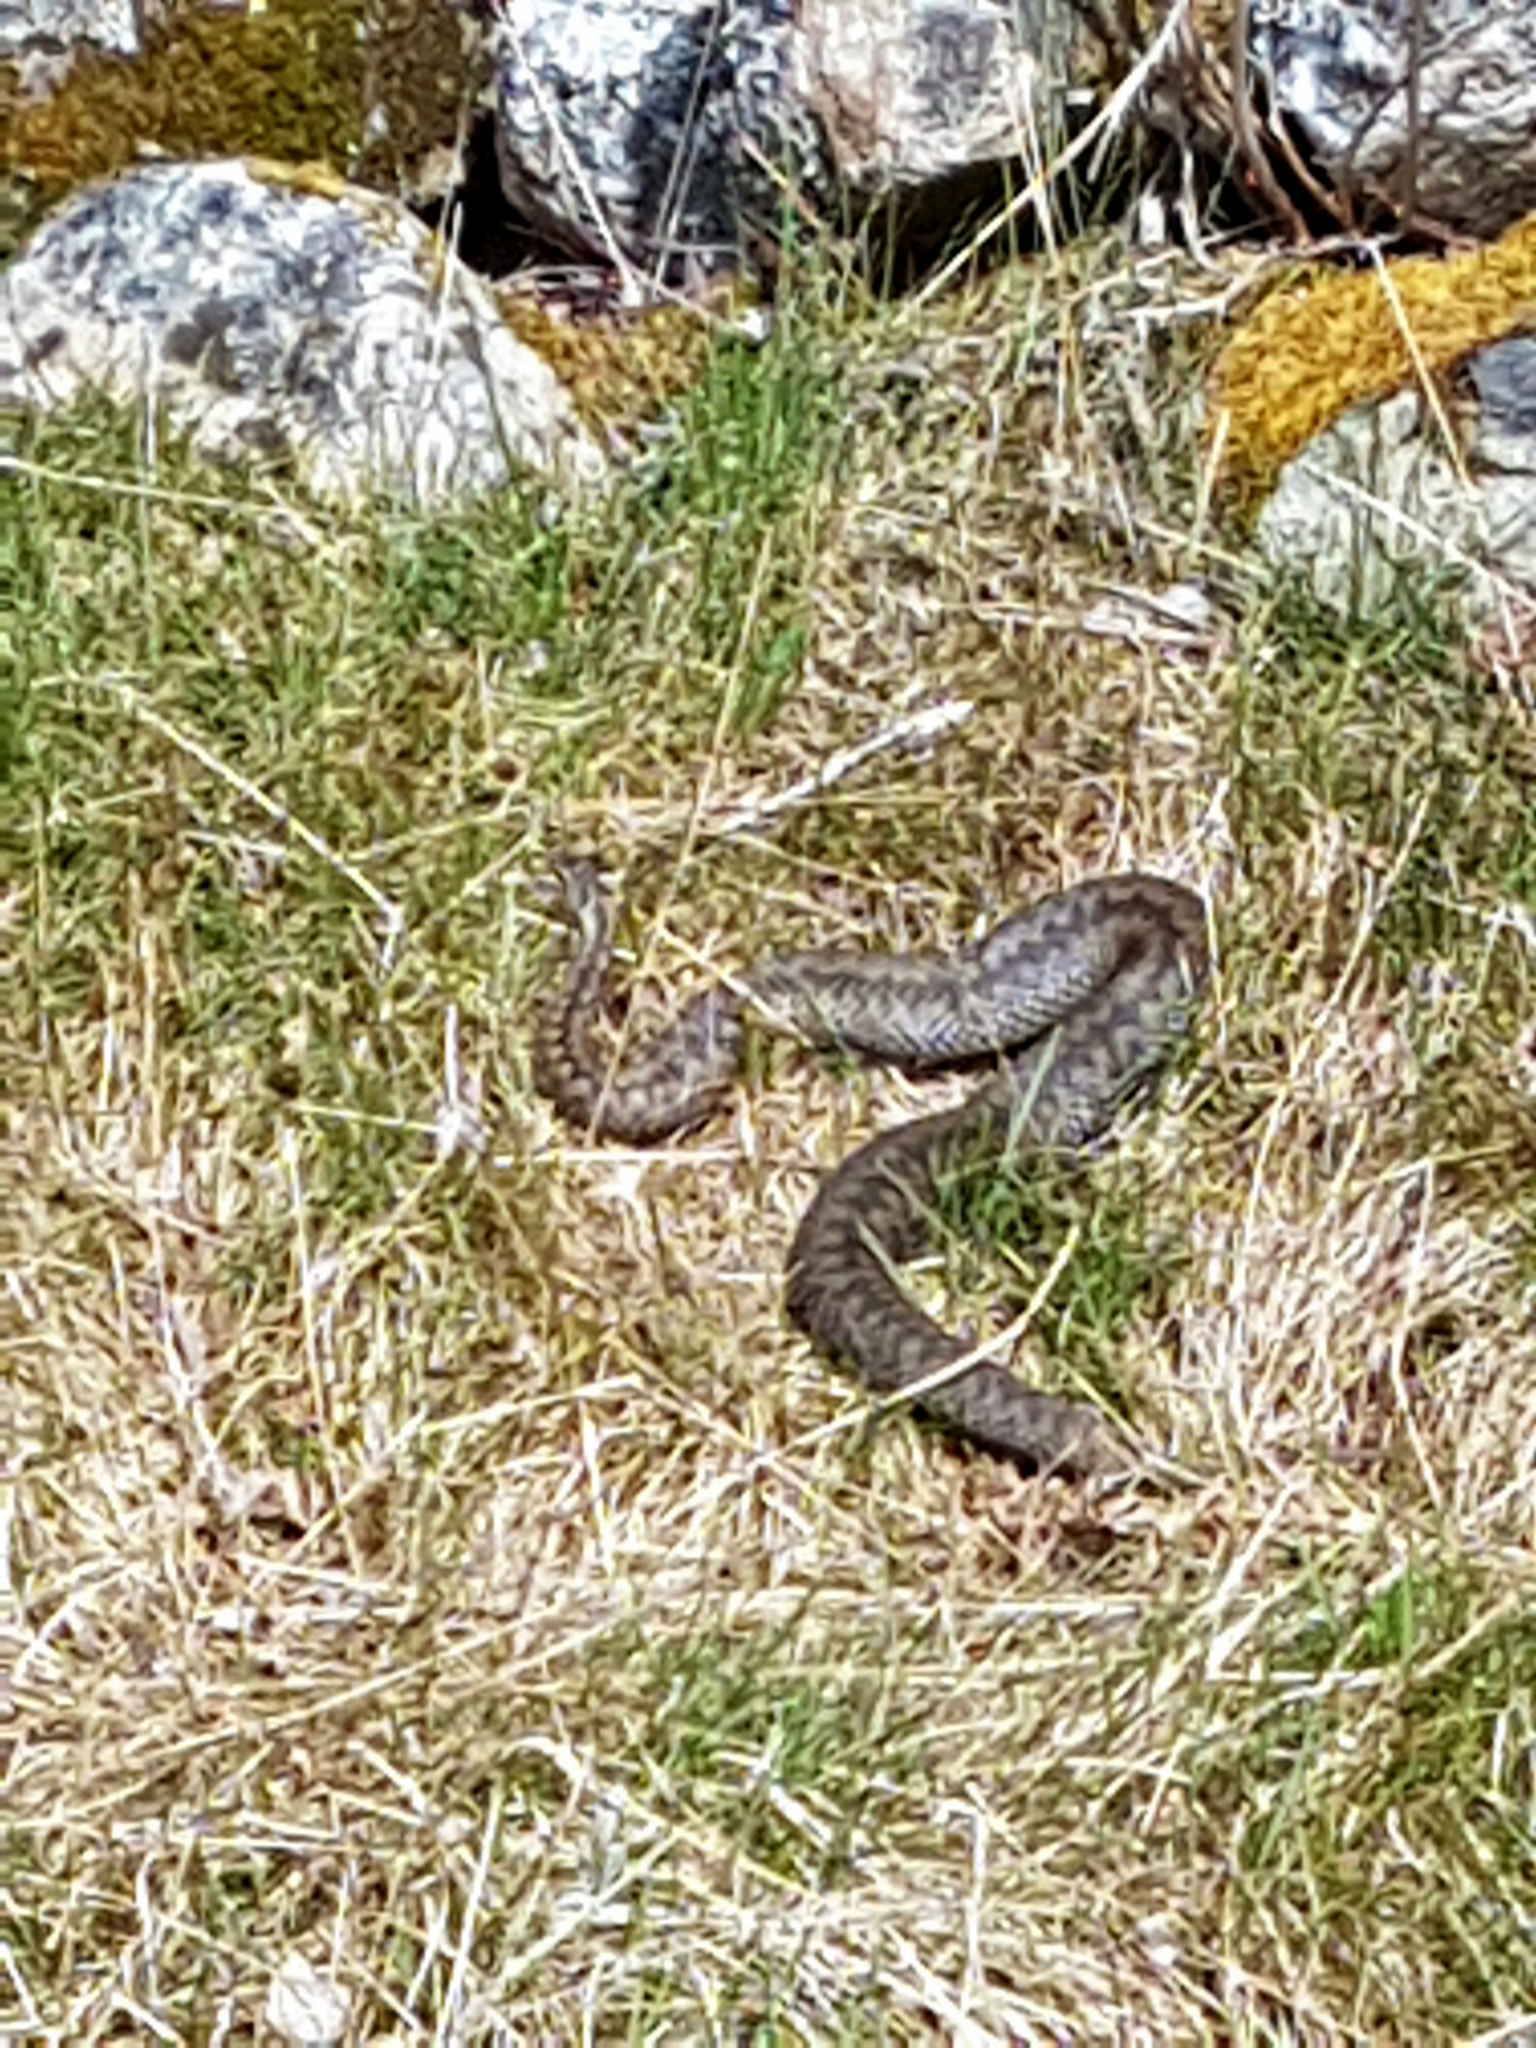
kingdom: Animalia
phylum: Chordata
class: Squamata
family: Viperidae
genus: Vipera
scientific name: Vipera berus
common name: Adder
